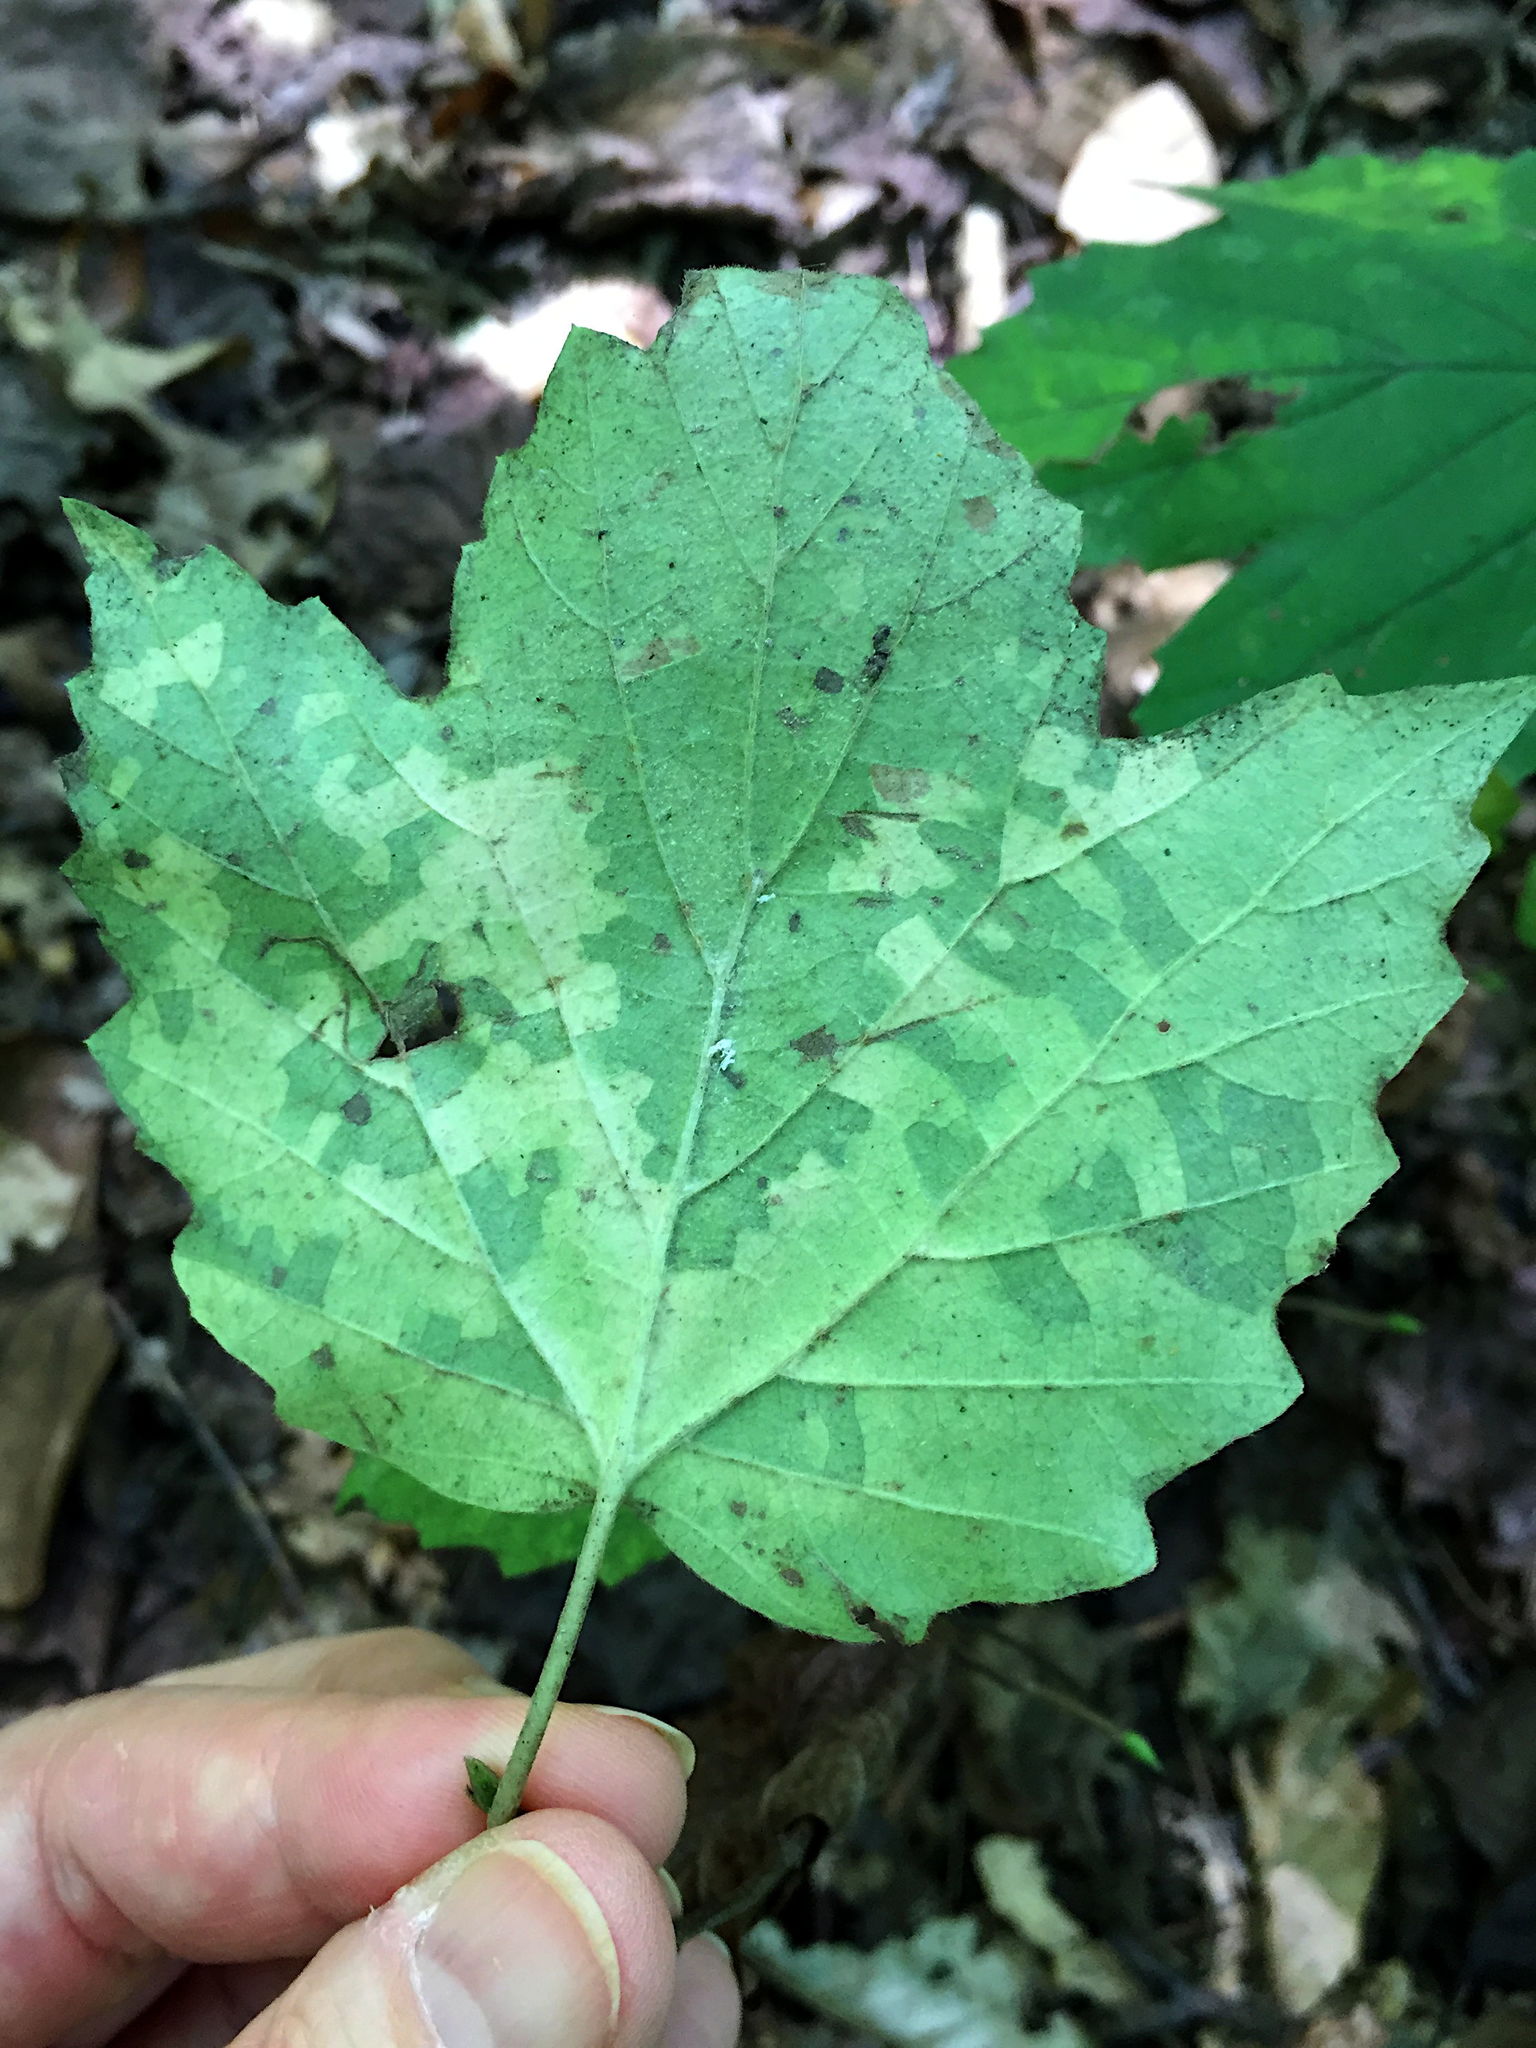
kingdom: Plantae
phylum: Tracheophyta
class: Magnoliopsida
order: Dipsacales
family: Viburnaceae
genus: Viburnum
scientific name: Viburnum acerifolium
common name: Dockmackie
